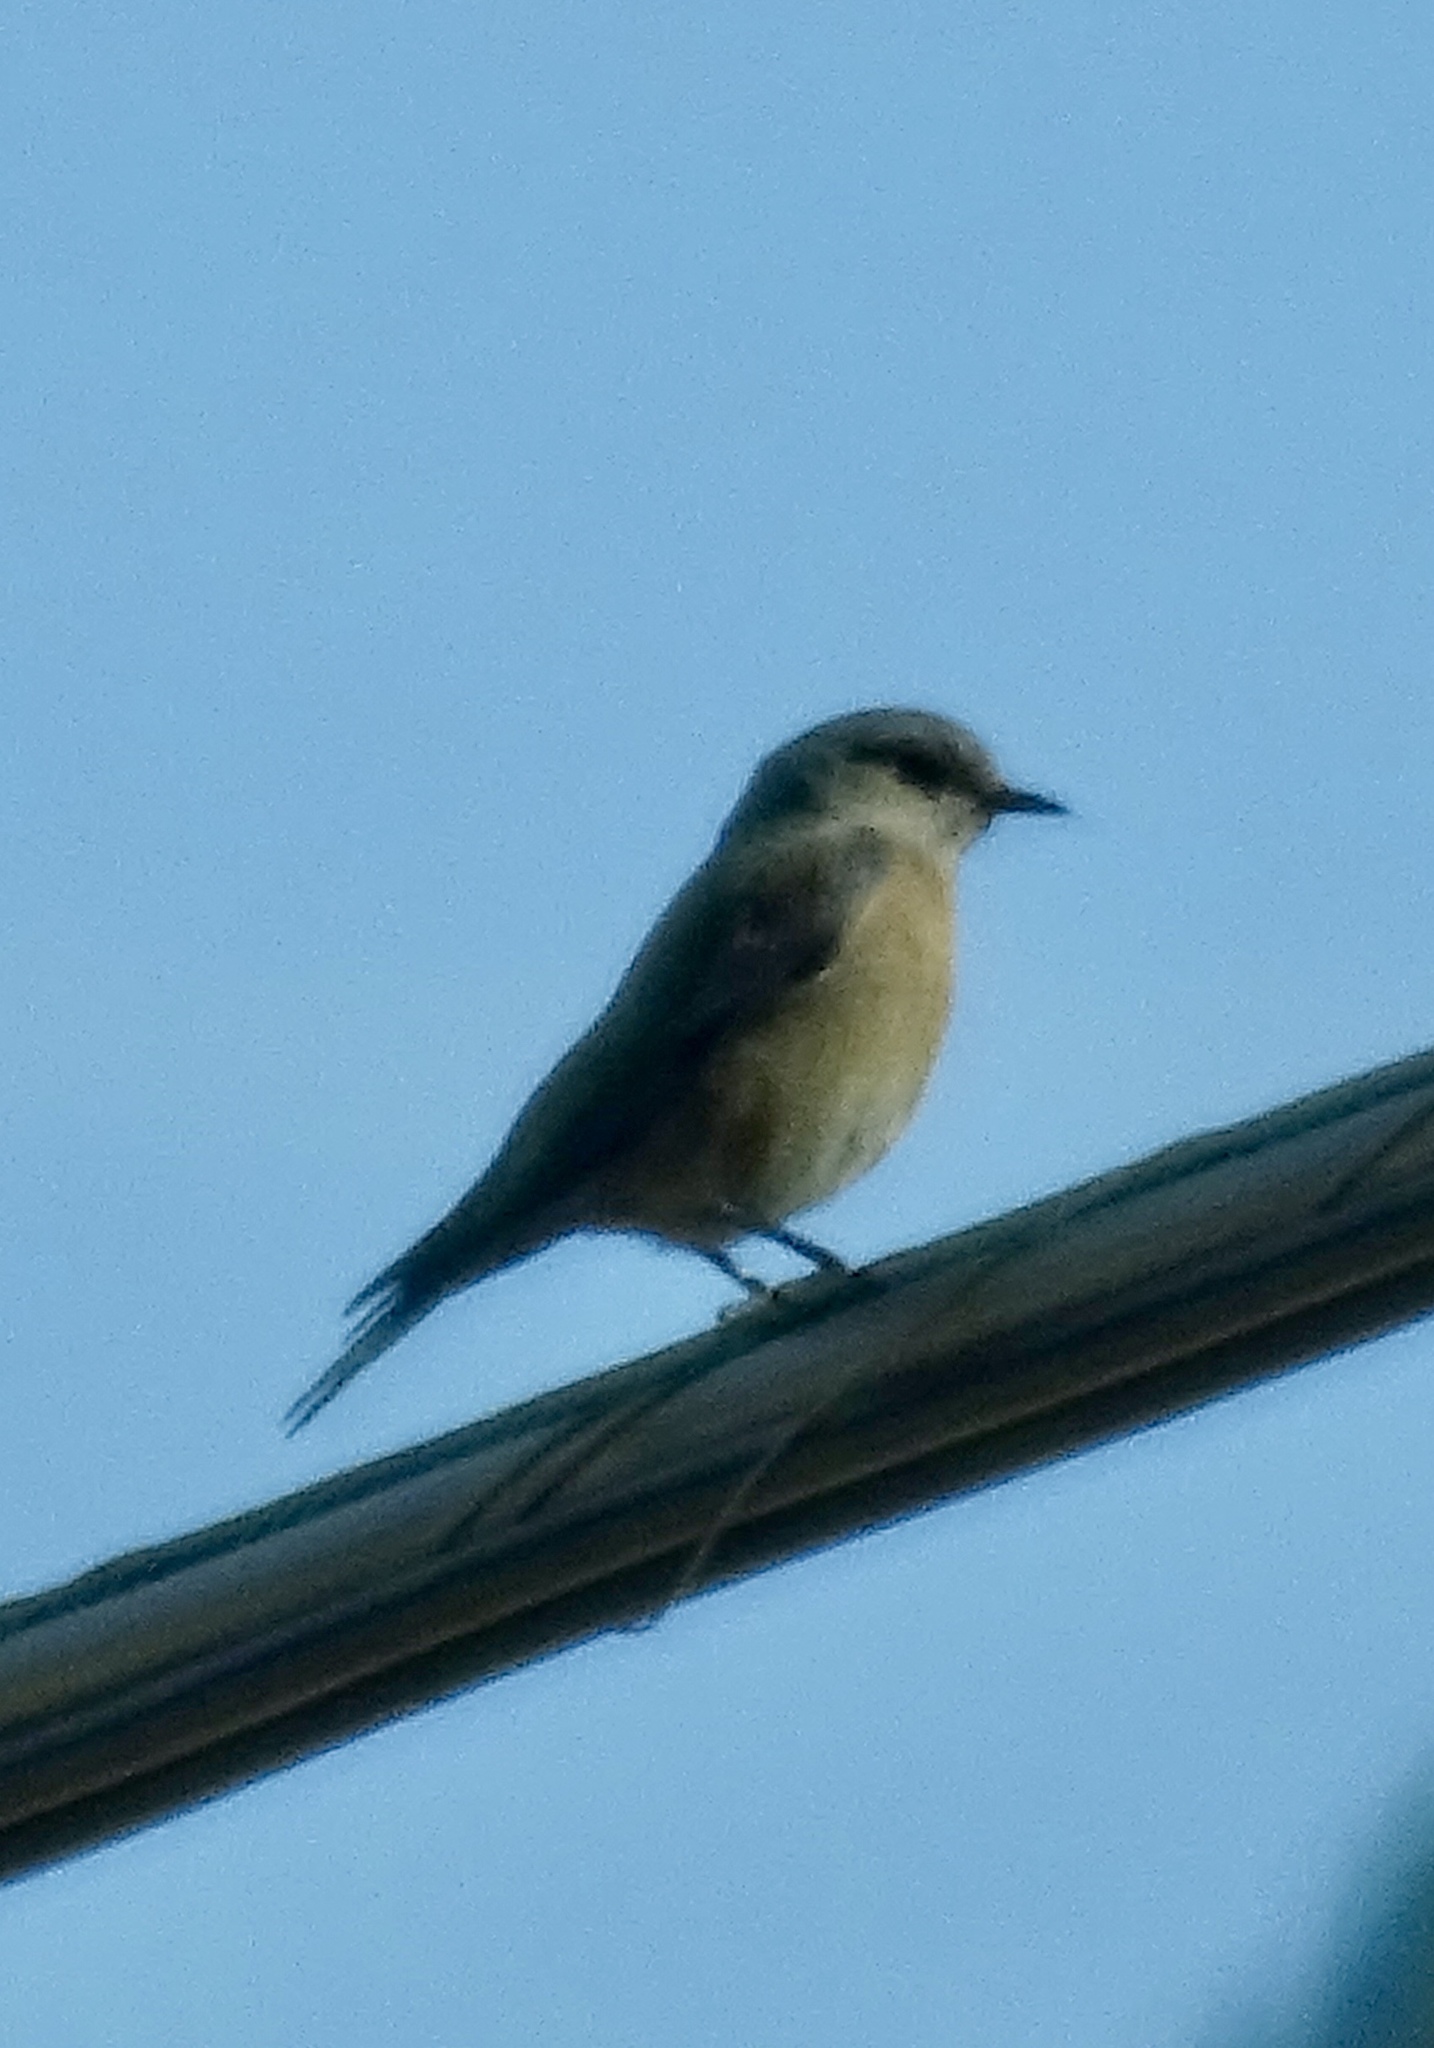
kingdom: Animalia
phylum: Chordata
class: Aves
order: Passeriformes
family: Turdidae
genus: Sialia
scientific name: Sialia mexicana
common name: Western bluebird
